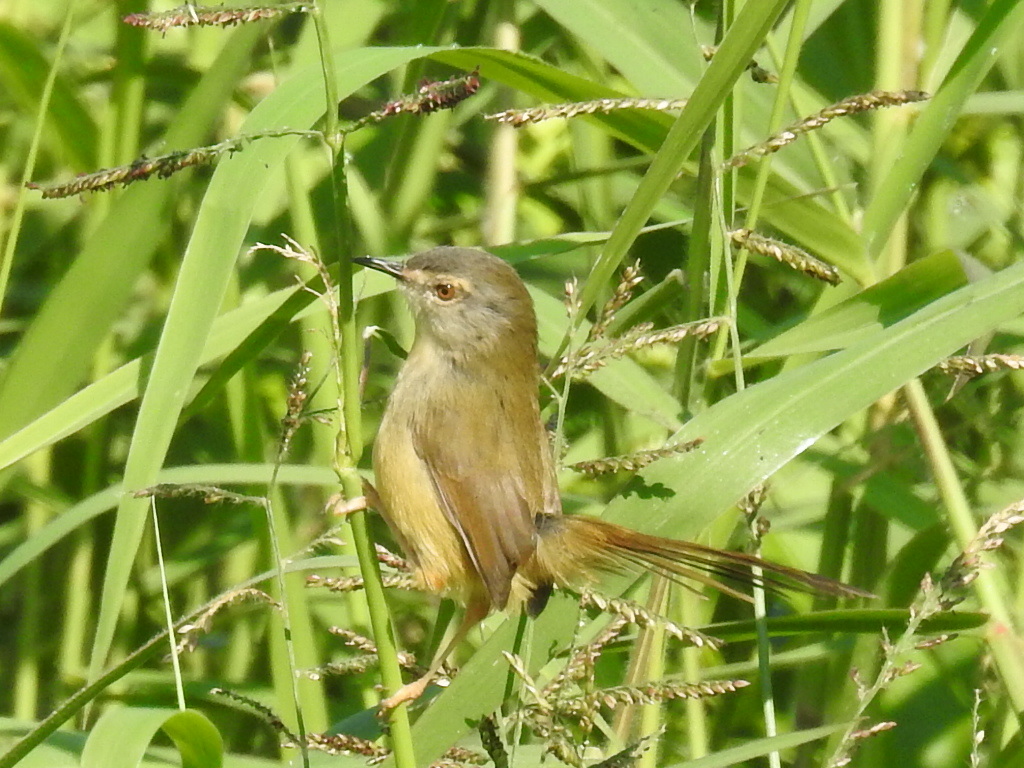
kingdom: Animalia
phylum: Chordata
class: Aves
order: Passeriformes
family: Cisticolidae
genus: Prinia
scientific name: Prinia flaviventris
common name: Yellow-bellied prinia
